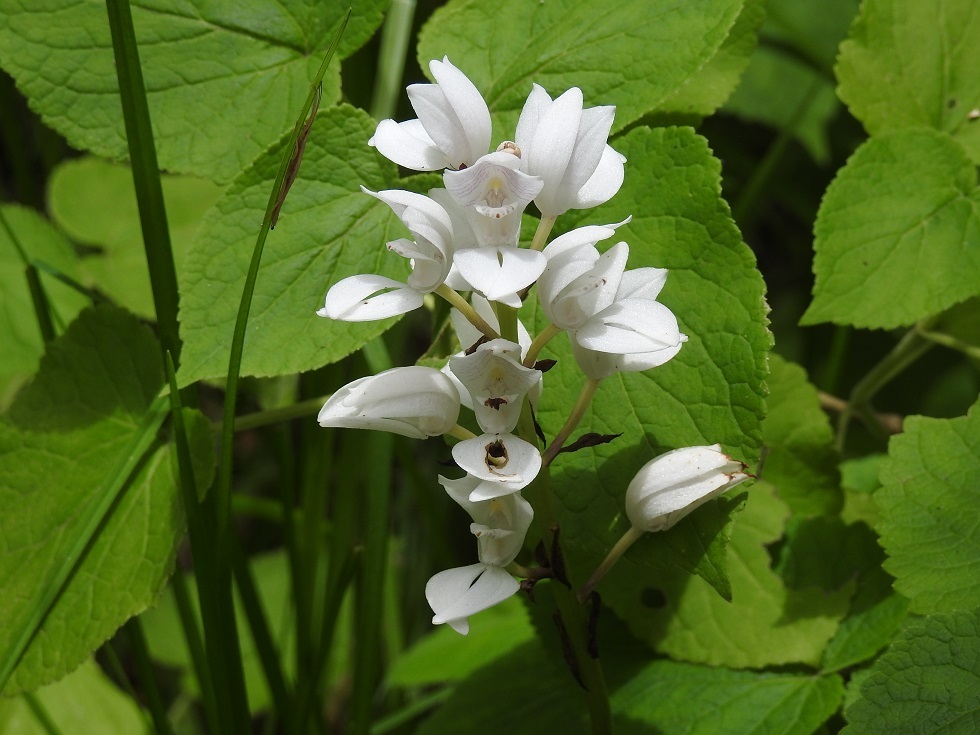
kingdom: Plantae
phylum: Tracheophyta
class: Liliopsida
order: Asparagales
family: Orchidaceae
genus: Govenia
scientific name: Govenia liliacea
